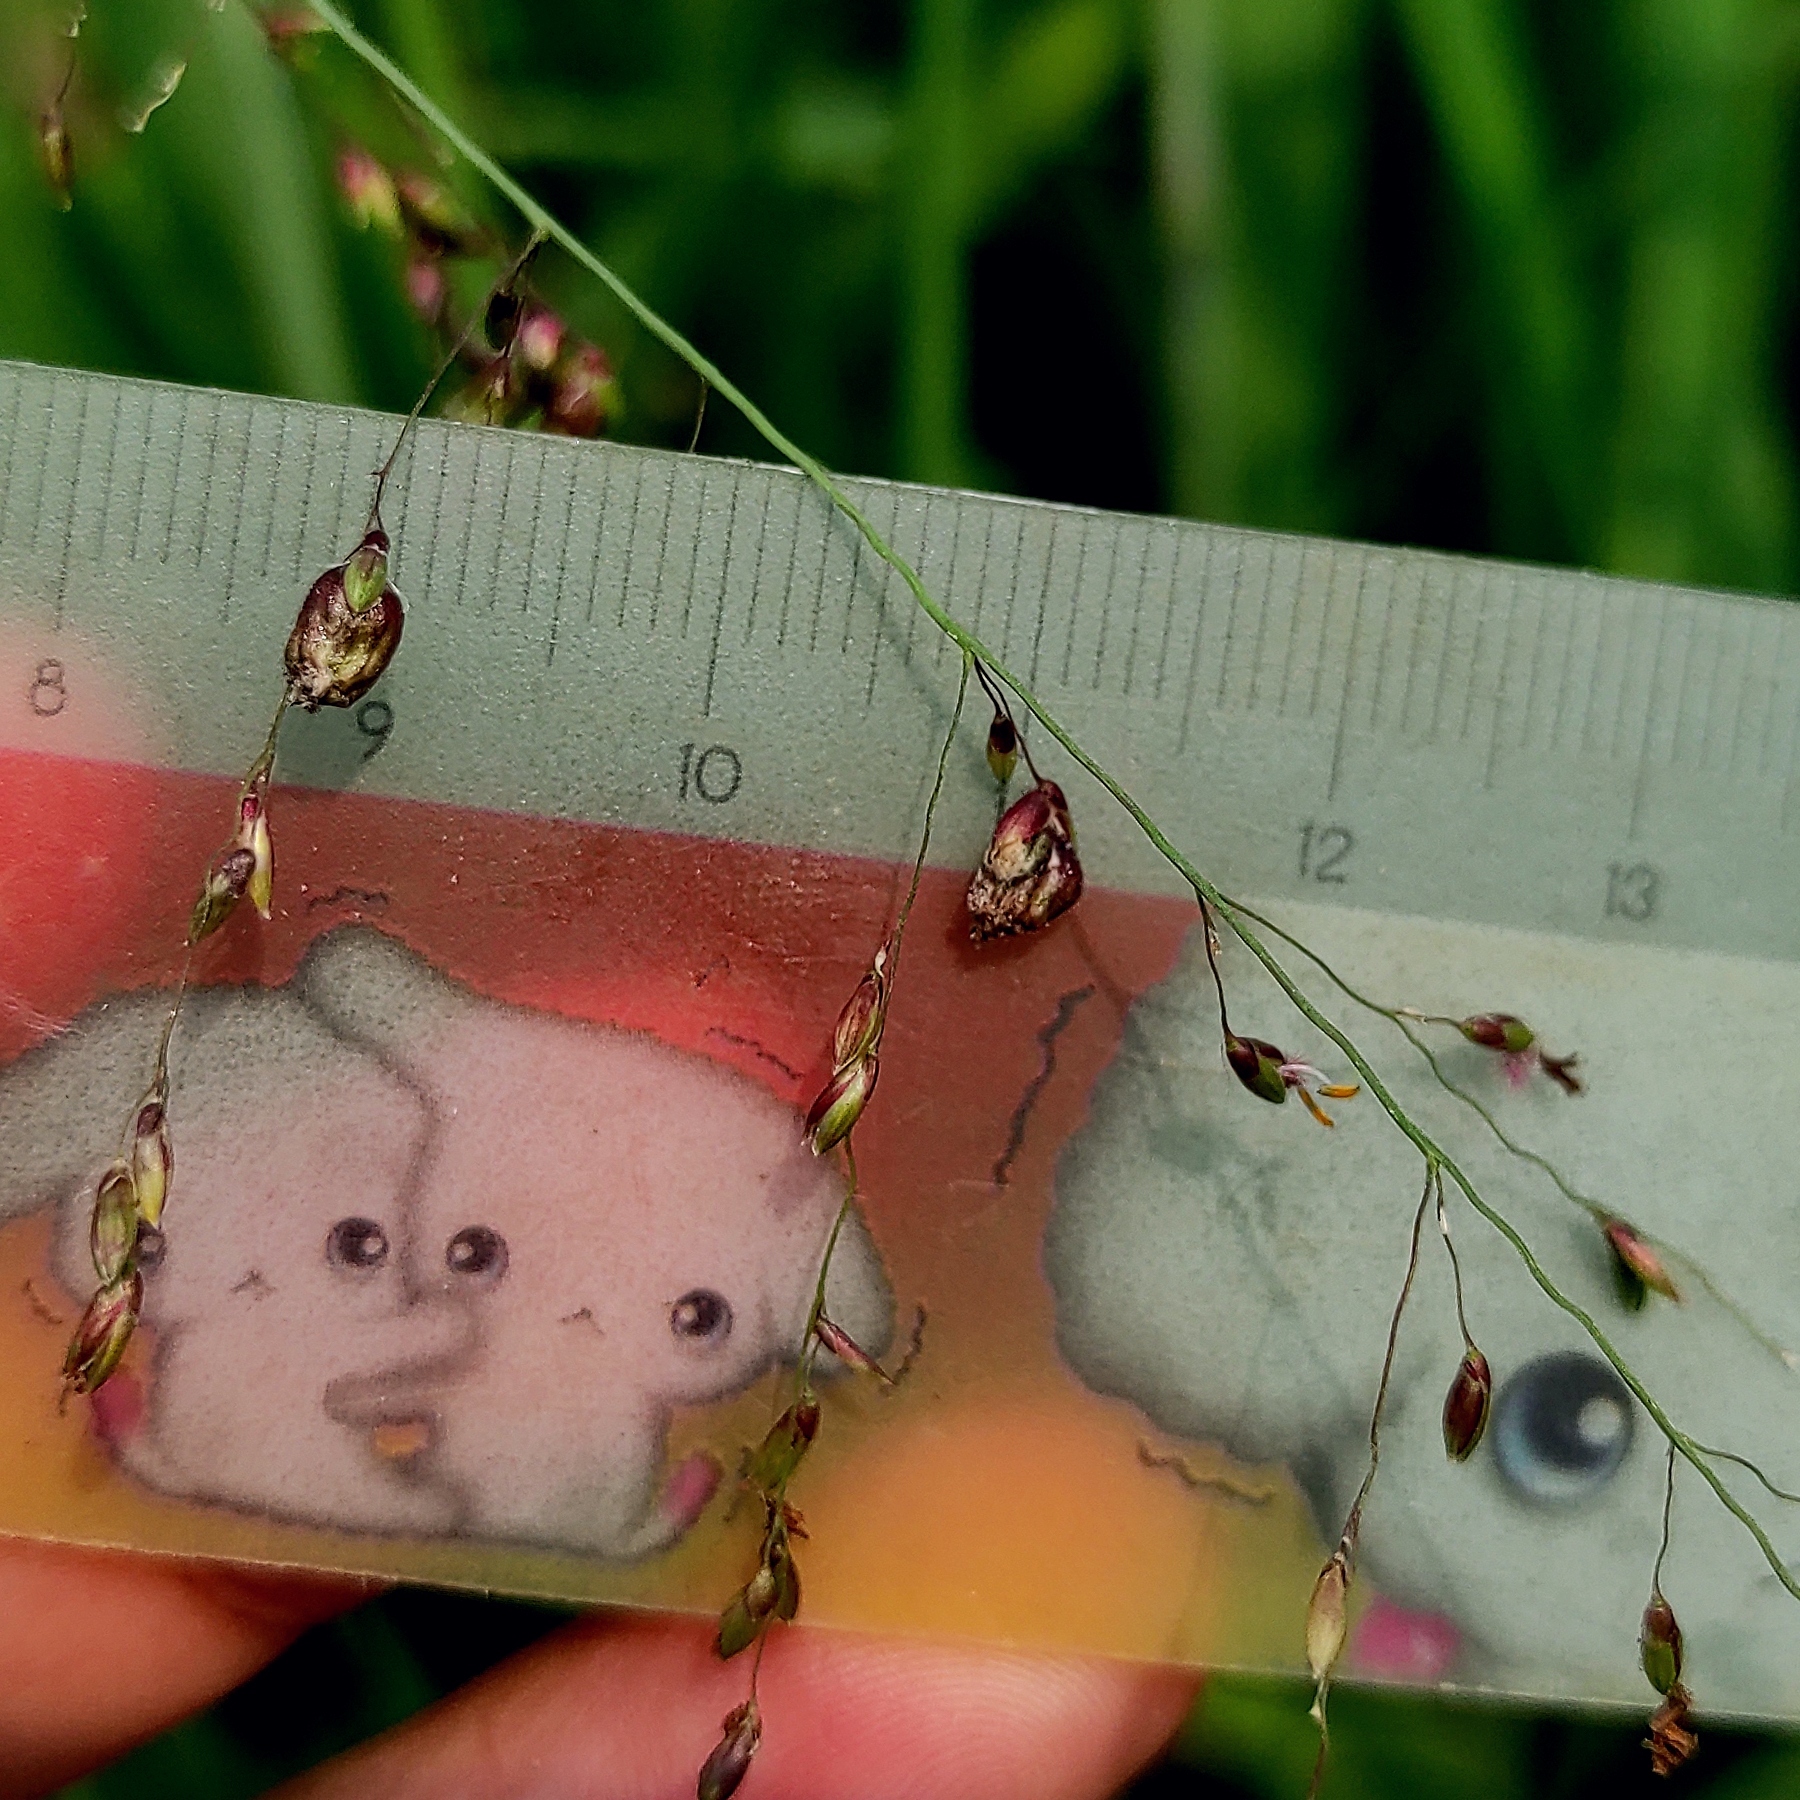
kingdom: Plantae
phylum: Tracheophyta
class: Liliopsida
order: Poales
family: Poaceae
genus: Megathyrsus
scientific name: Megathyrsus maximus
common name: Guineagrass
